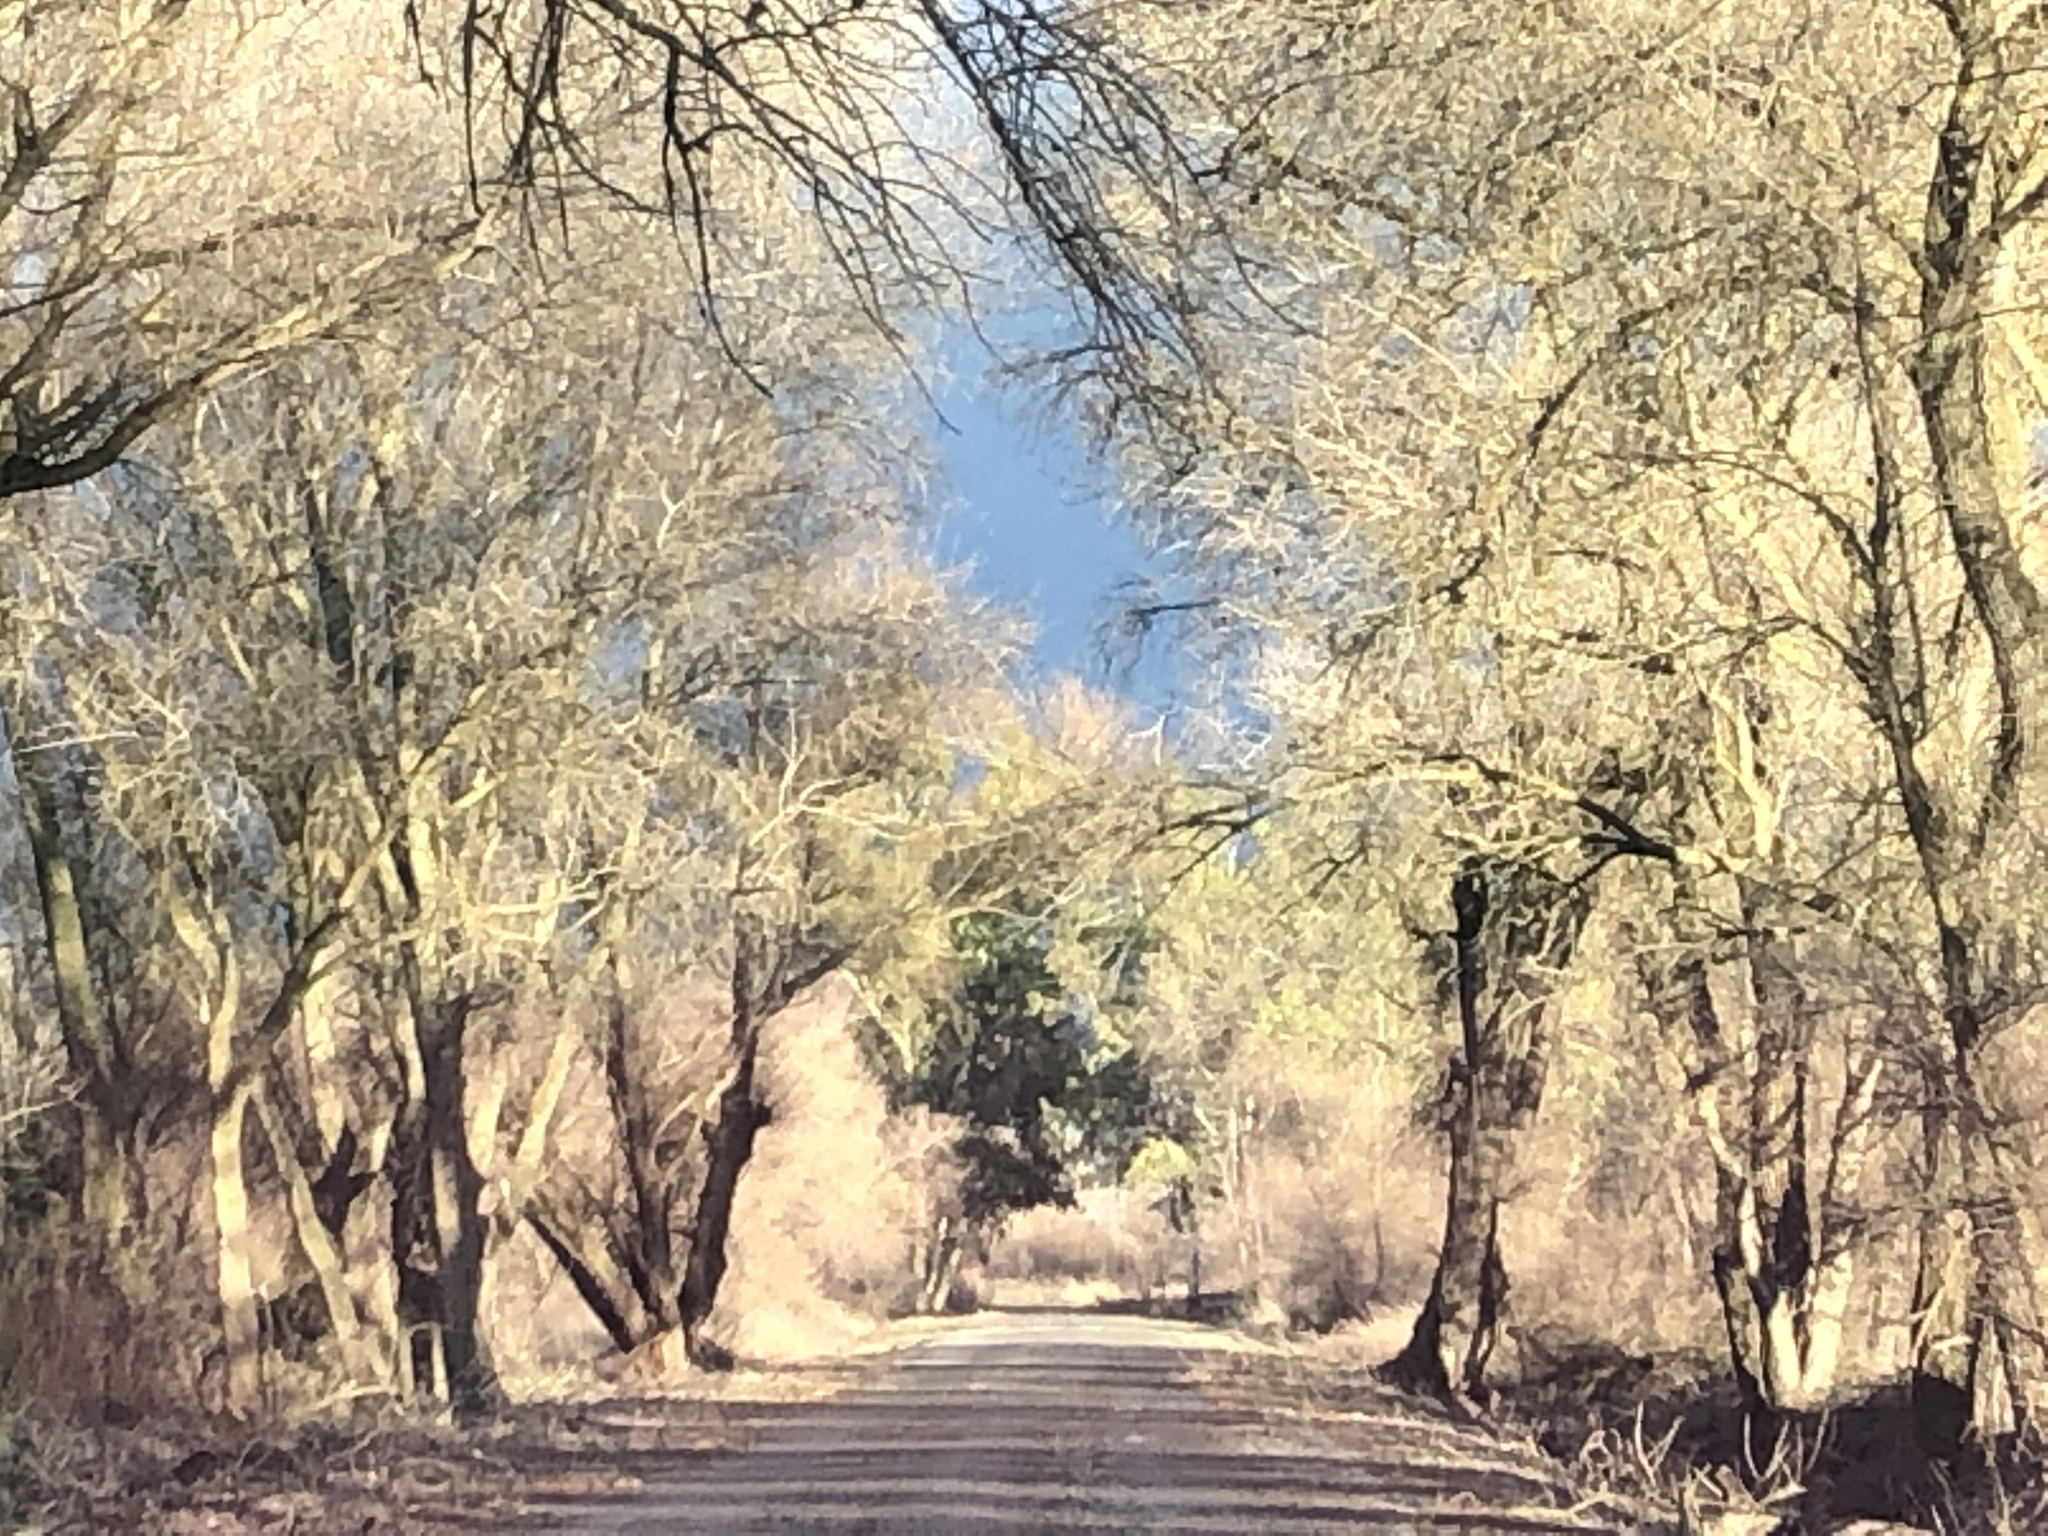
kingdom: Animalia
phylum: Chordata
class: Aves
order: Passeriformes
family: Laniidae
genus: Lanius
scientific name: Lanius ludovicianus
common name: Loggerhead shrike
